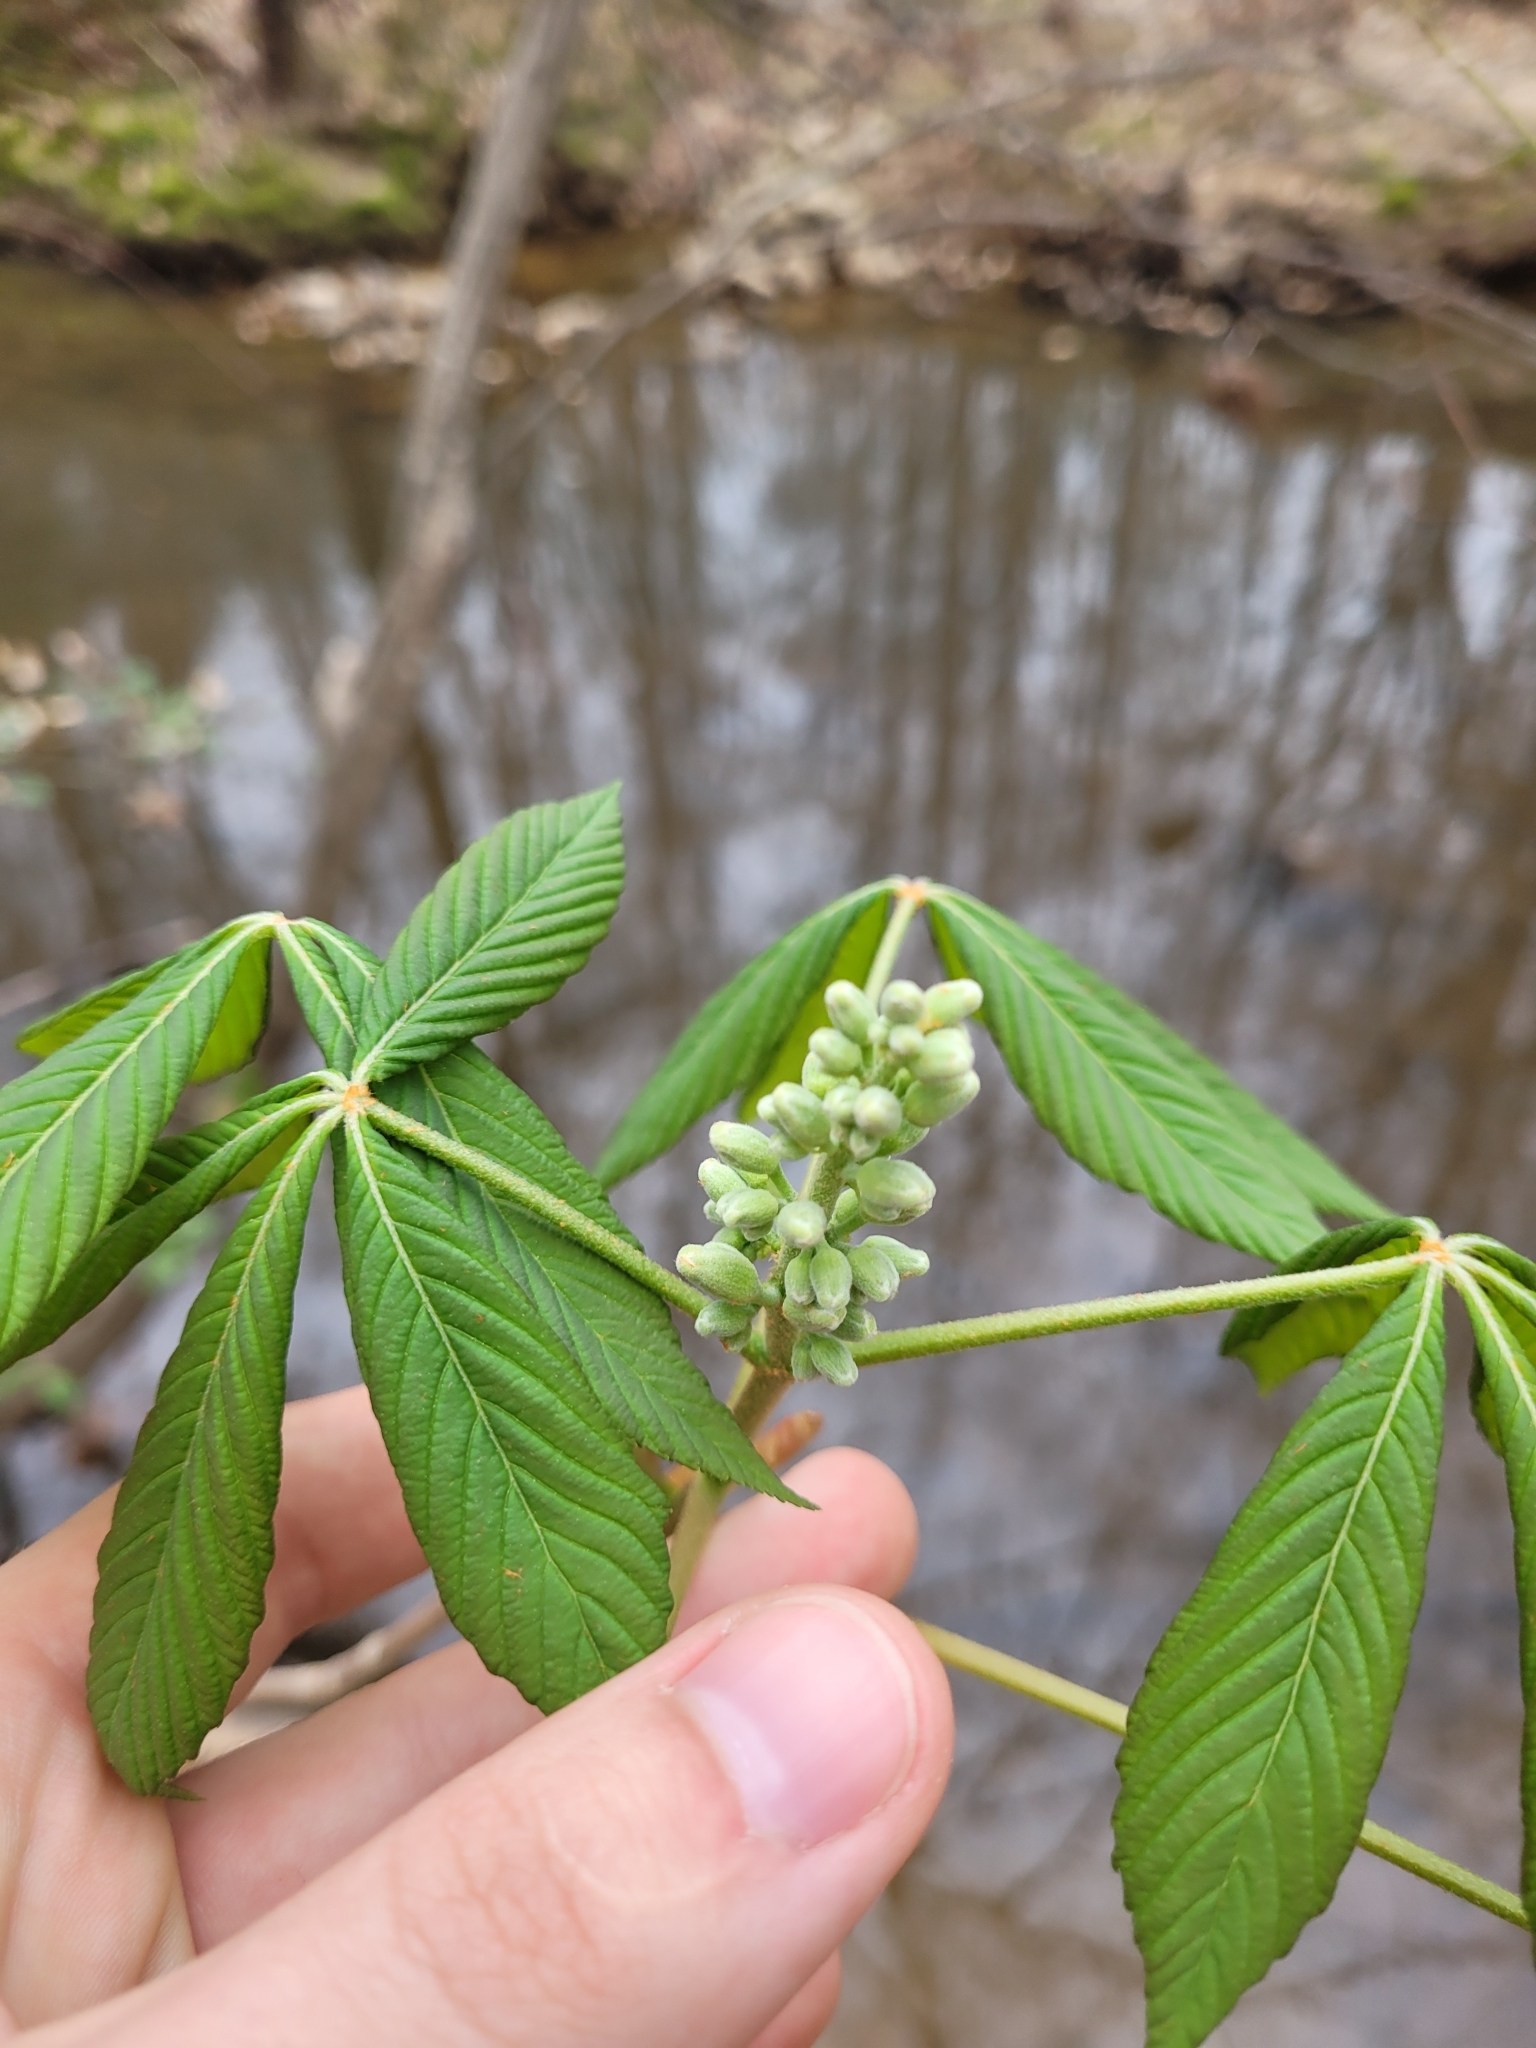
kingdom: Plantae
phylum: Tracheophyta
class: Magnoliopsida
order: Sapindales
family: Sapindaceae
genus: Aesculus
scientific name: Aesculus sylvatica
